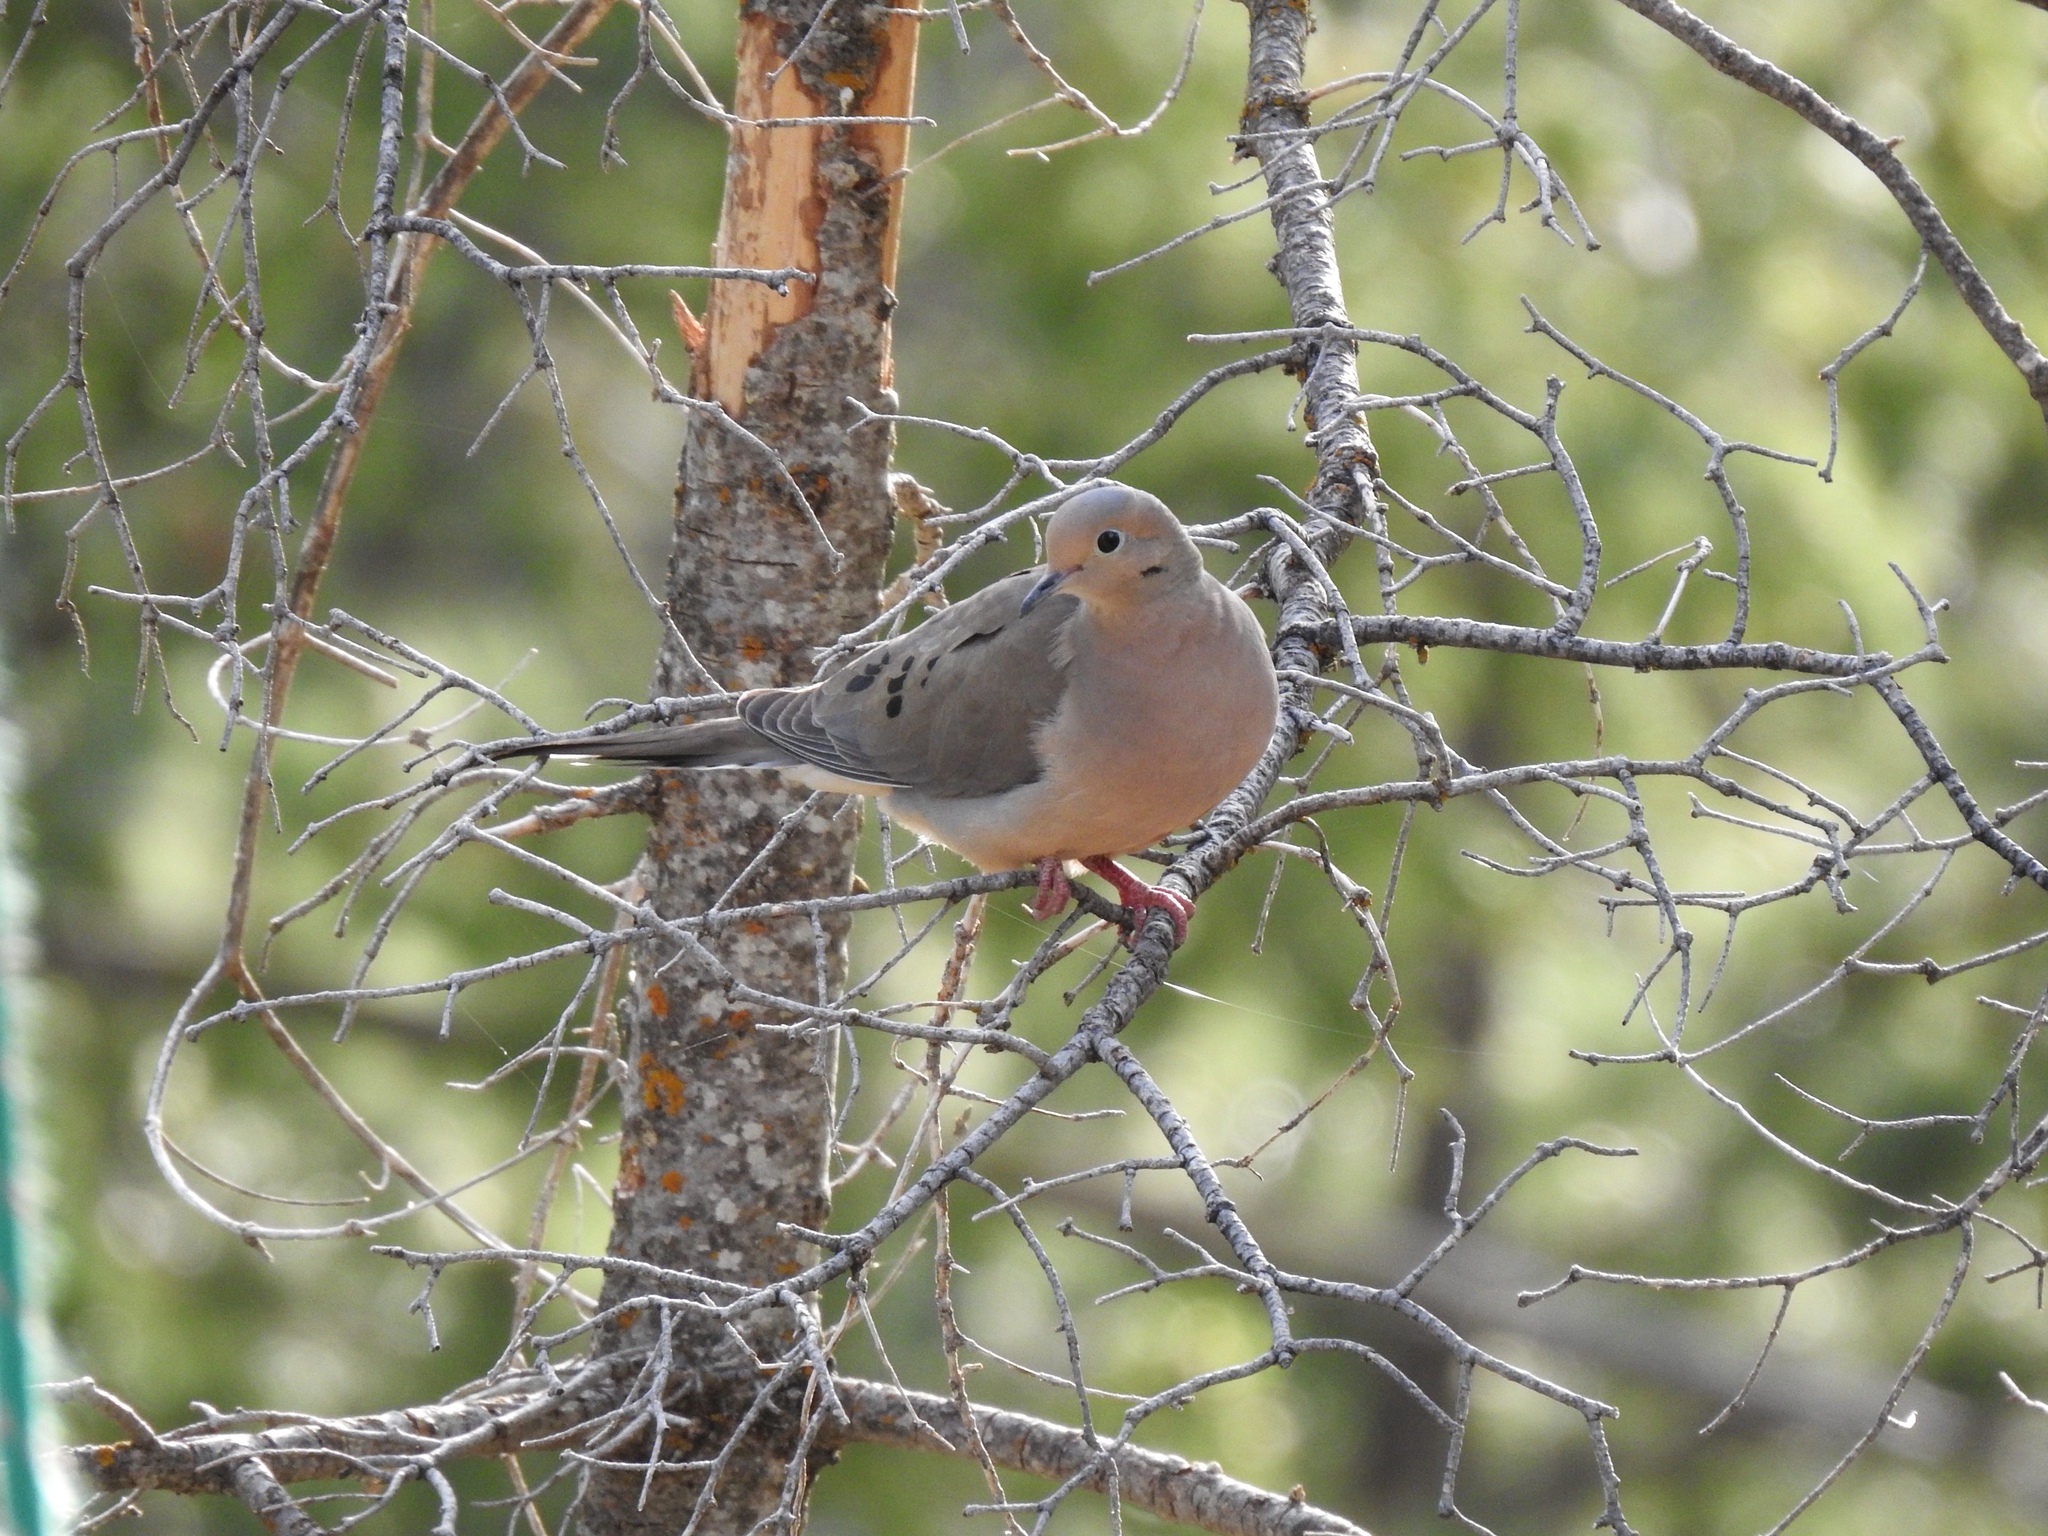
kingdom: Animalia
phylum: Chordata
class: Aves
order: Columbiformes
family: Columbidae
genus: Zenaida
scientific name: Zenaida macroura
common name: Mourning dove
